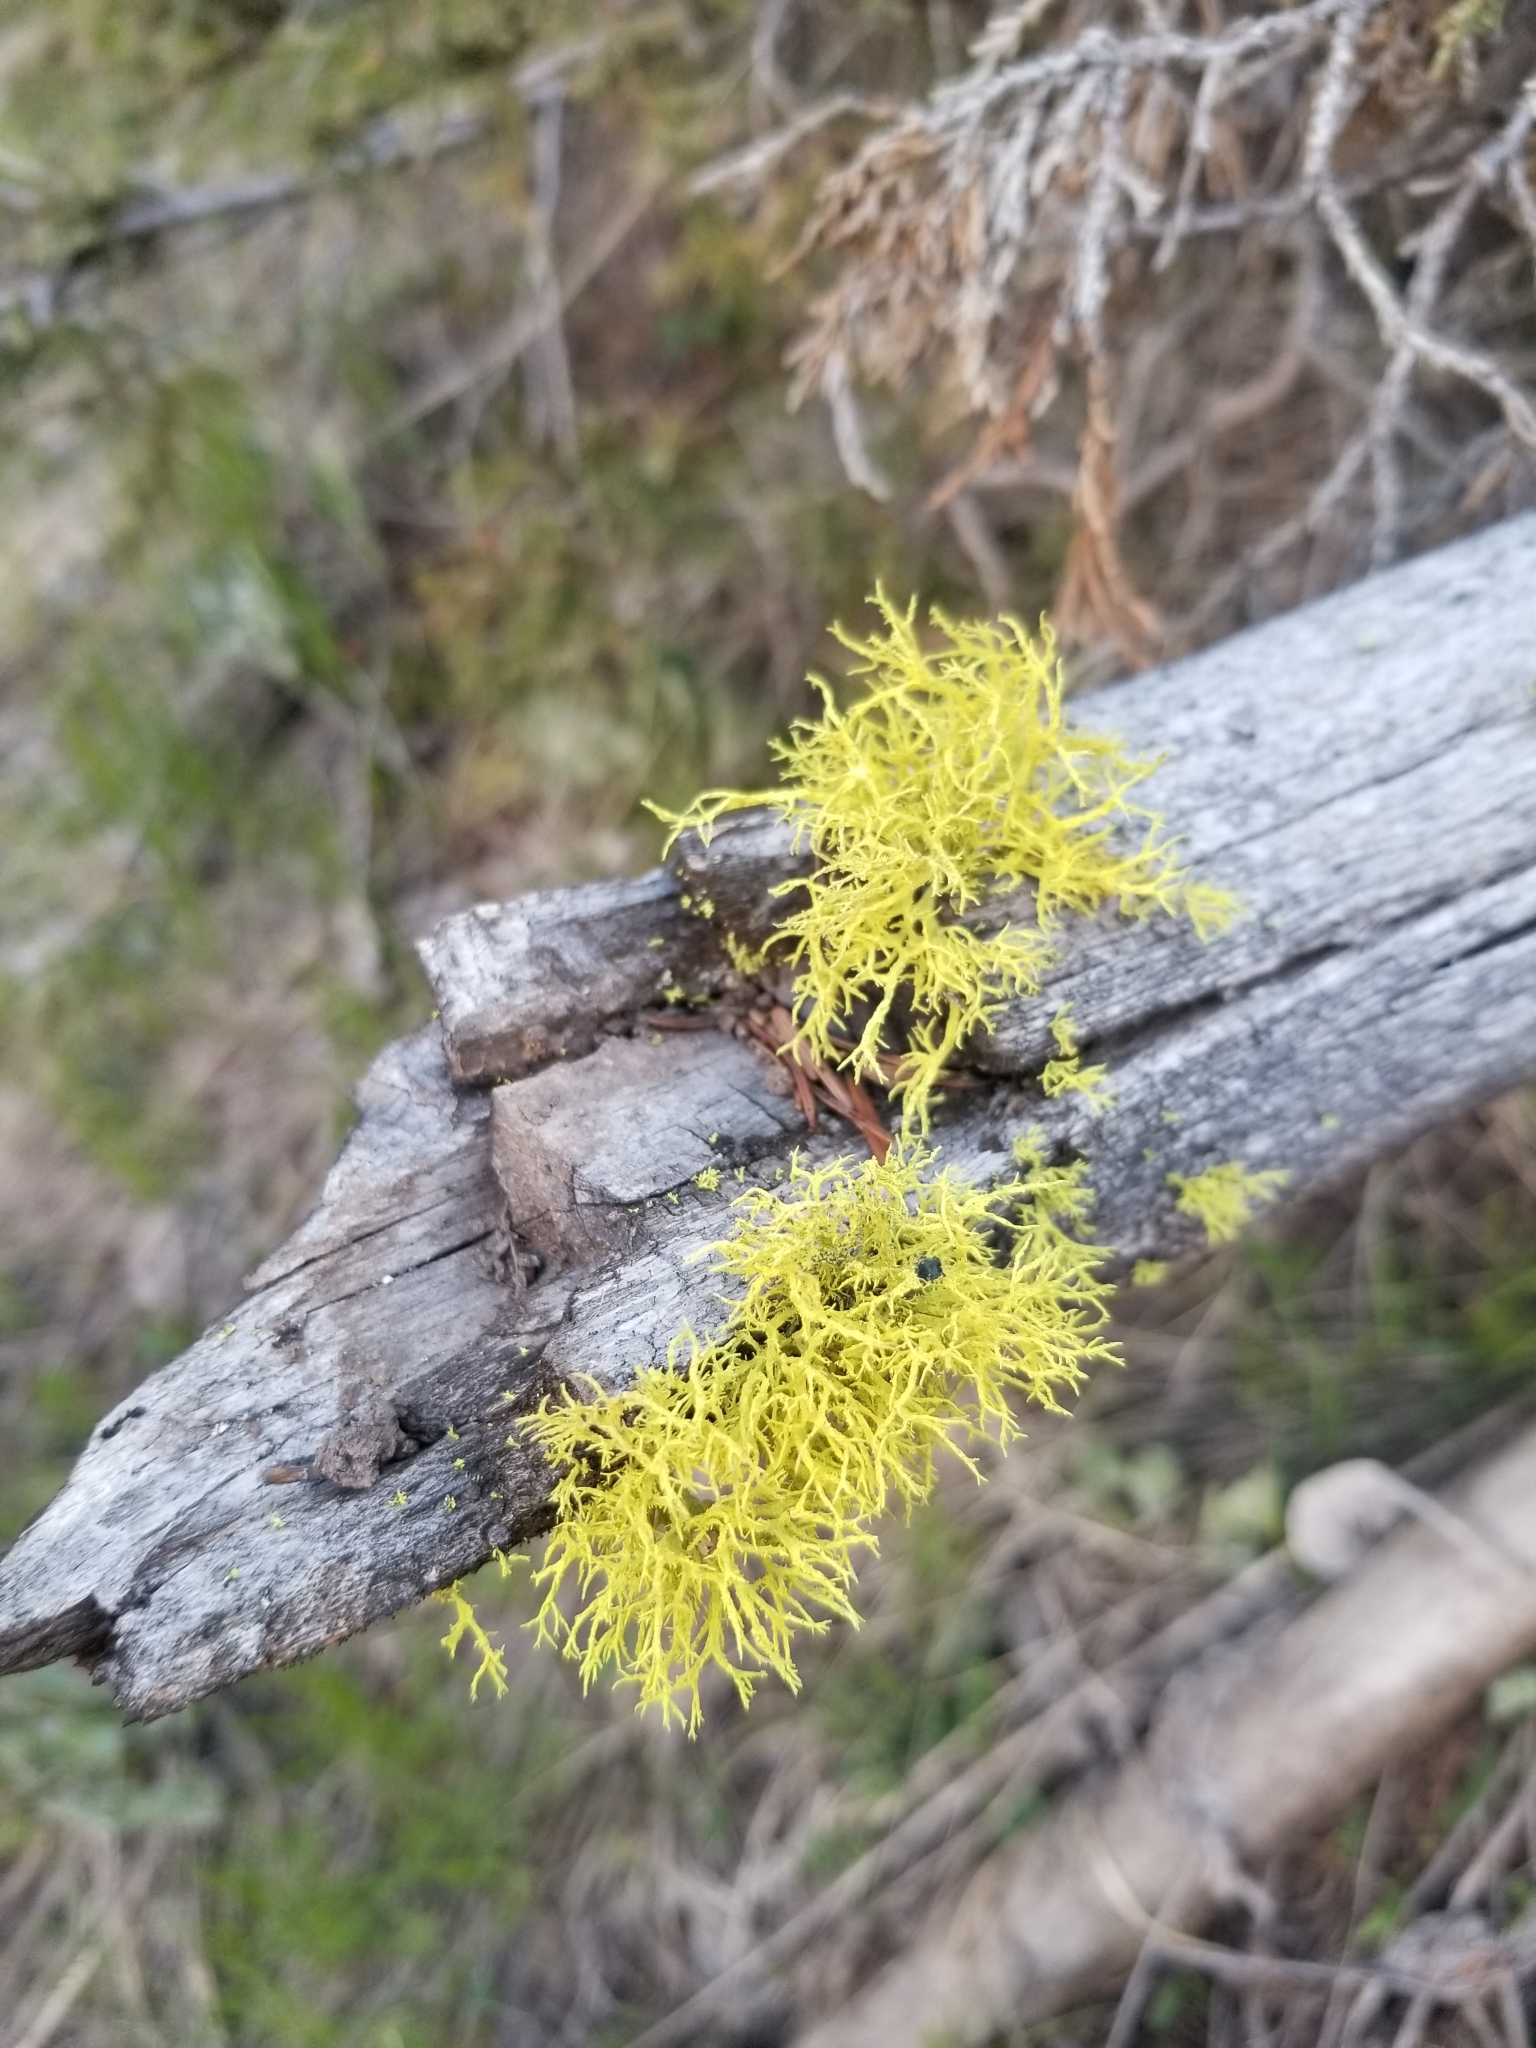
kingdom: Fungi
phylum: Ascomycota
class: Lecanoromycetes
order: Lecanorales
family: Parmeliaceae
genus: Letharia
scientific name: Letharia vulpina
